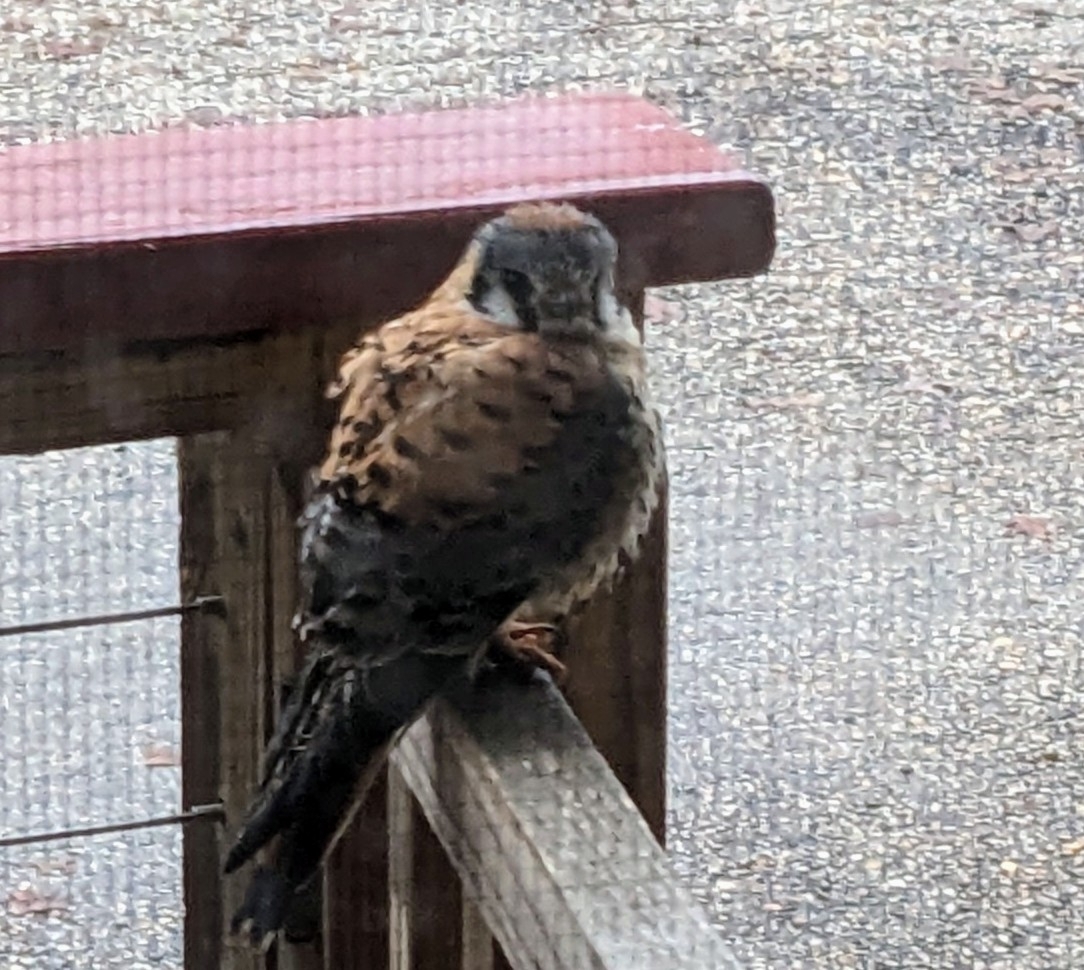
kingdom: Animalia
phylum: Chordata
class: Aves
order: Falconiformes
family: Falconidae
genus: Falco
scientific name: Falco sparverius
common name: American kestrel
